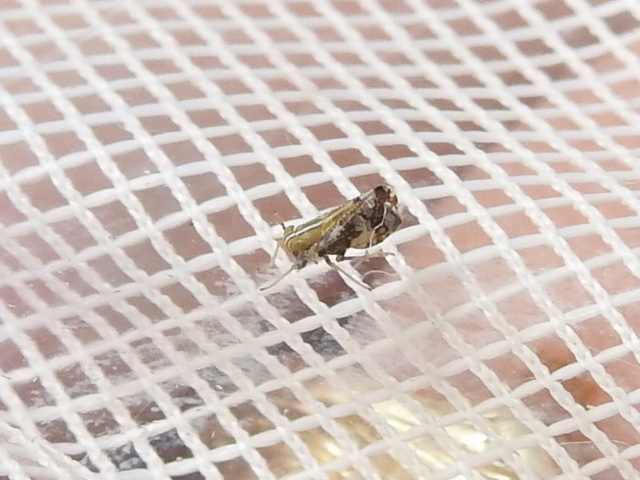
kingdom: Animalia
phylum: Arthropoda
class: Insecta
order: Hemiptera
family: Delphacidae
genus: Liburniella
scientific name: Liburniella ornata
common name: Ornate planthopper
